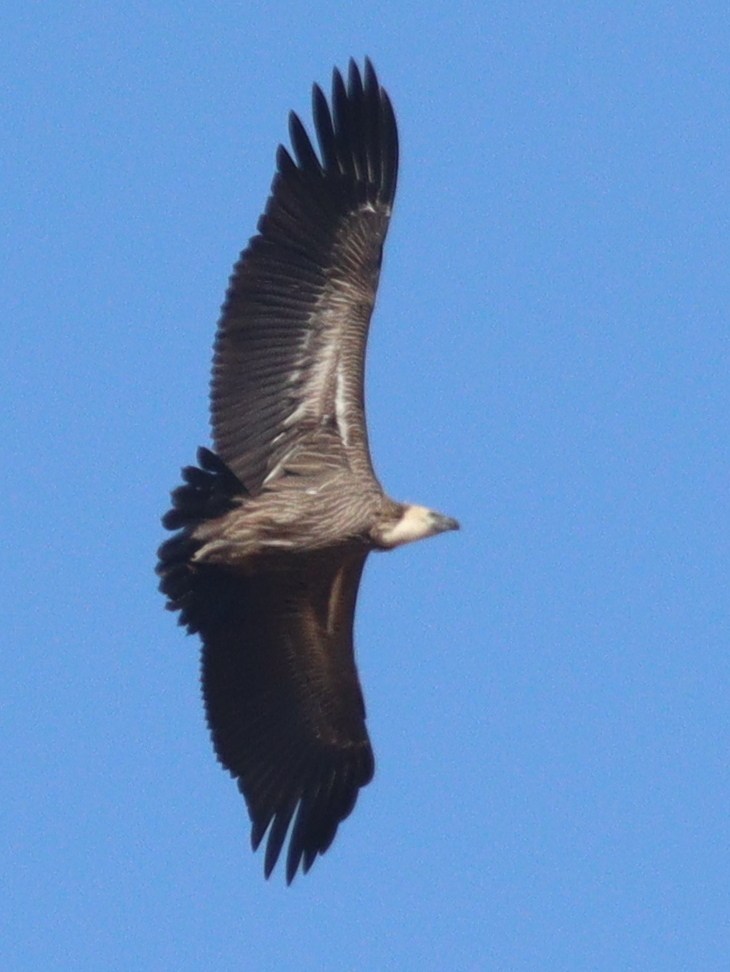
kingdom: Animalia
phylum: Chordata
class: Aves
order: Accipitriformes
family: Accipitridae
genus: Gyps
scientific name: Gyps africanus
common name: White-backed vulture
